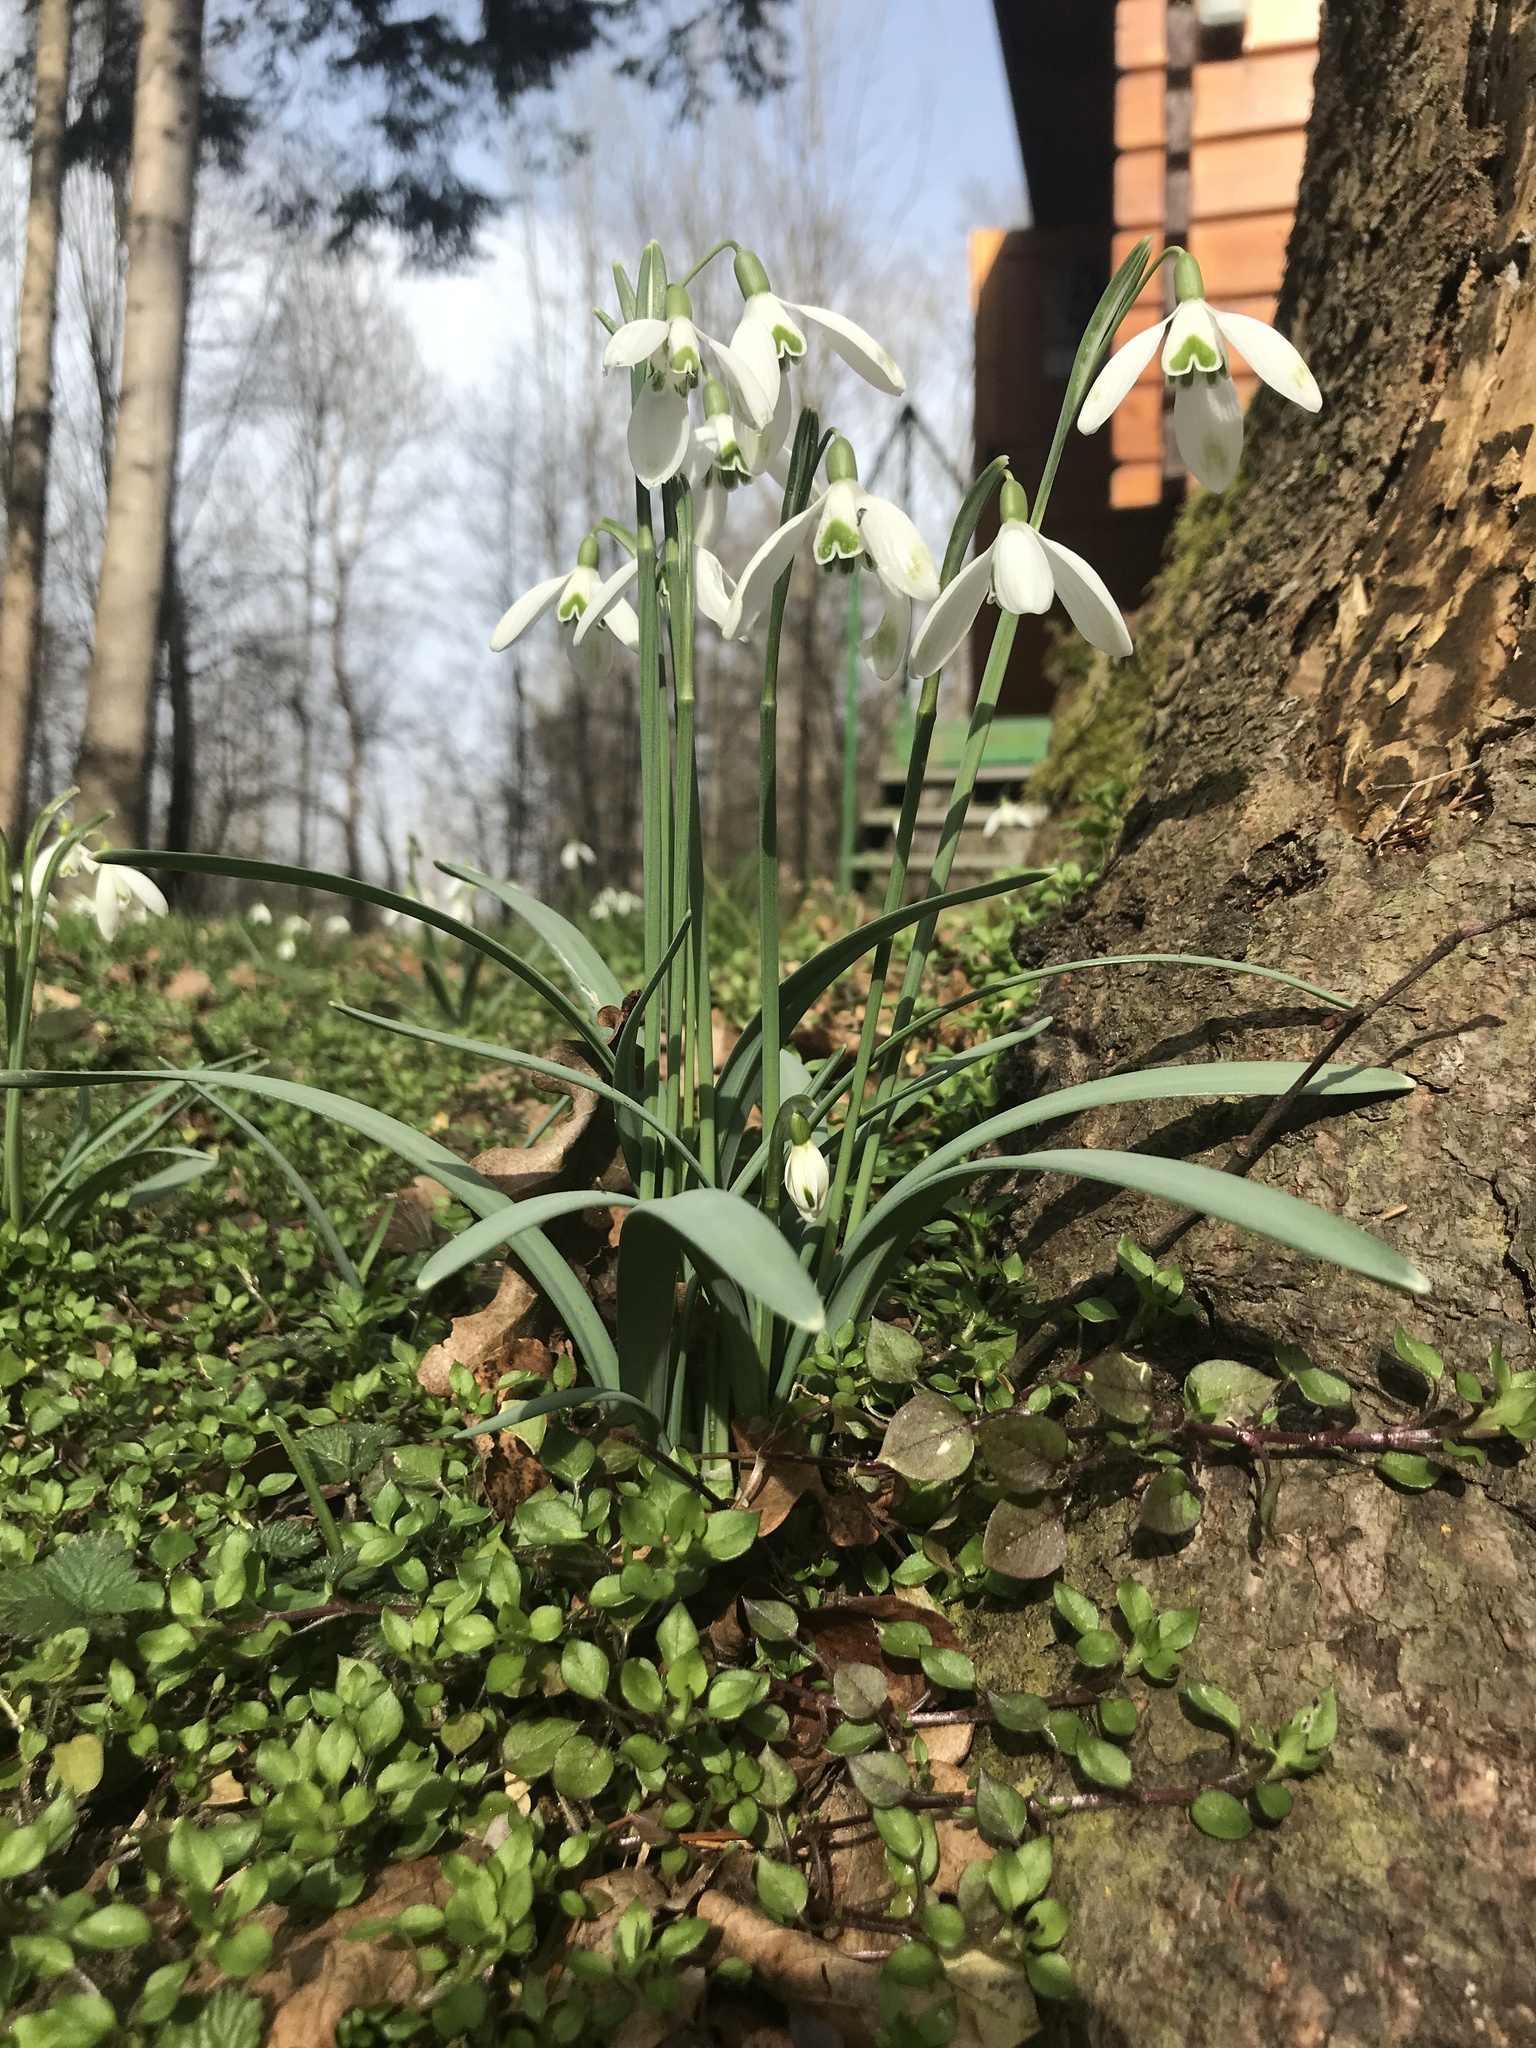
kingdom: Plantae
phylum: Tracheophyta
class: Liliopsida
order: Asparagales
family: Amaryllidaceae
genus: Galanthus
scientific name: Galanthus nivalis
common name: Snowdrop
